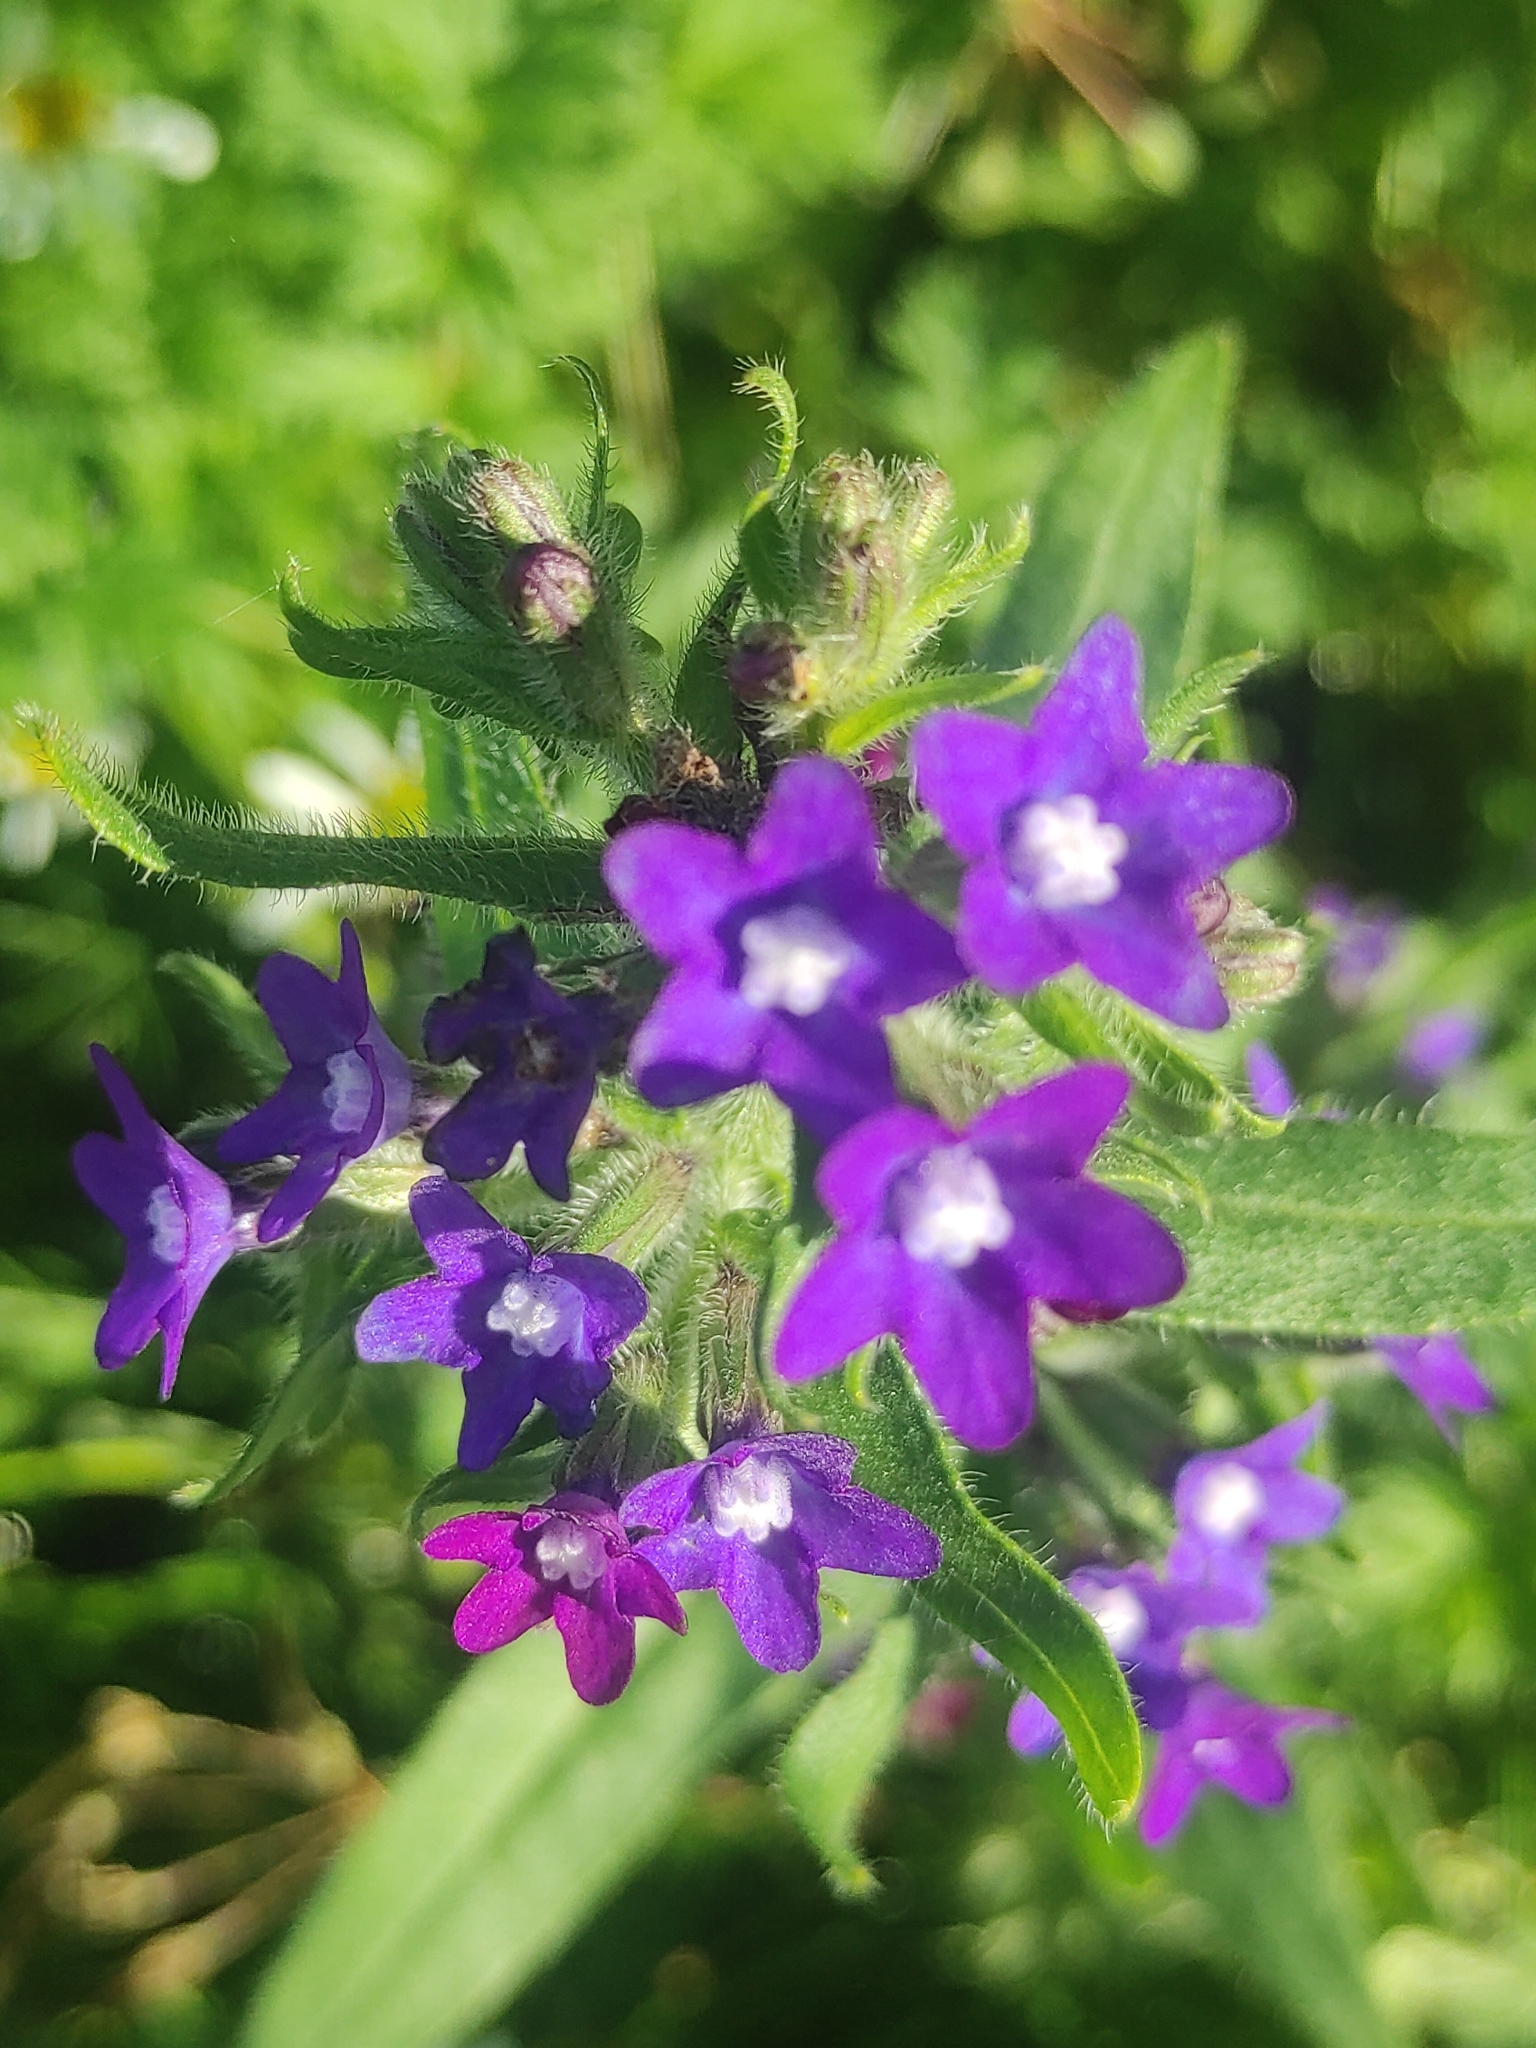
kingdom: Plantae
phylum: Tracheophyta
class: Magnoliopsida
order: Boraginales
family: Boraginaceae
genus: Anchusa
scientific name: Anchusa officinalis
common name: Alkanet
